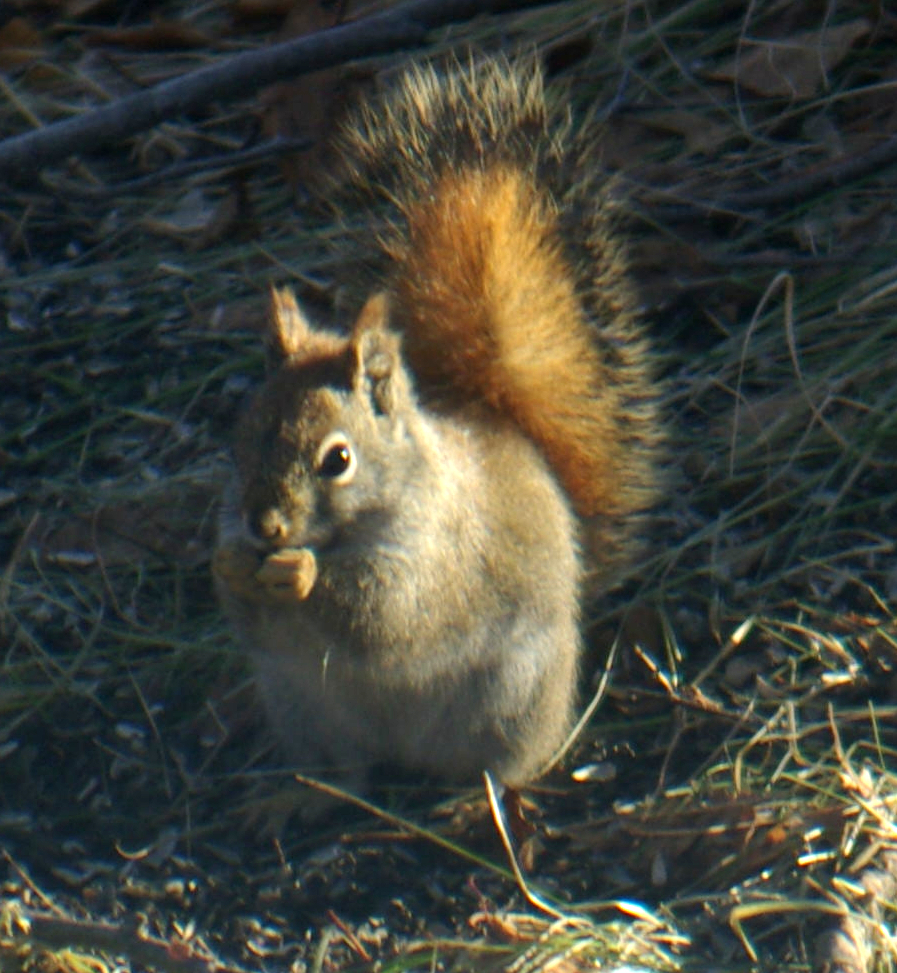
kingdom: Animalia
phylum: Chordata
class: Mammalia
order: Rodentia
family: Sciuridae
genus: Tamiasciurus
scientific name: Tamiasciurus hudsonicus
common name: Red squirrel
